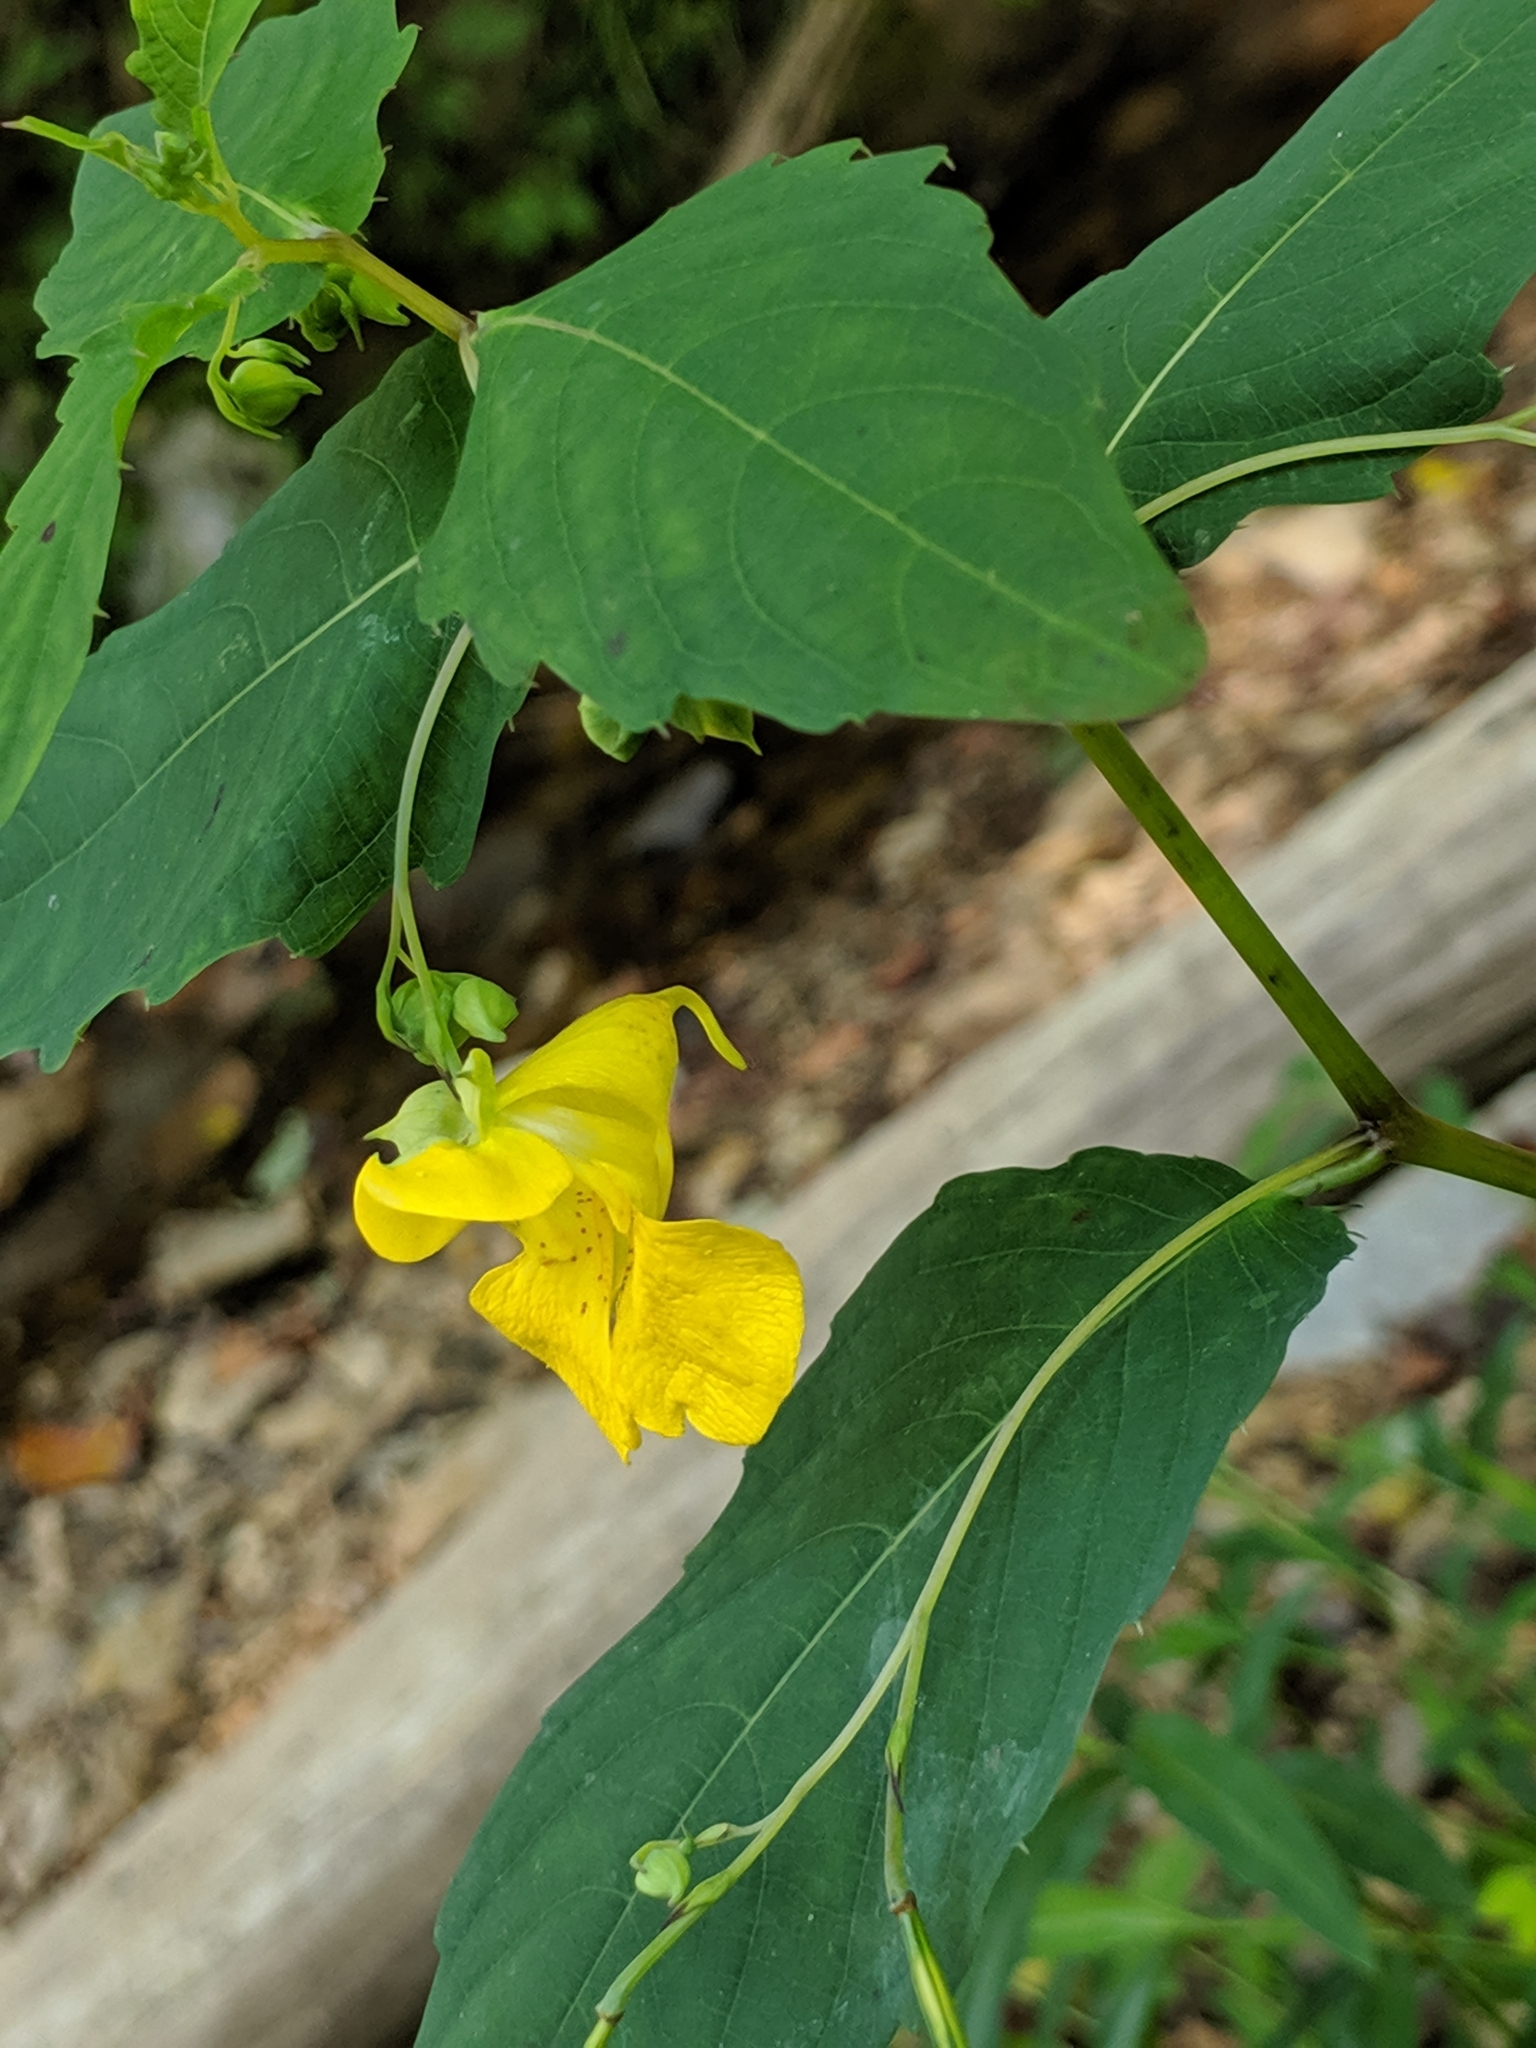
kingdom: Plantae
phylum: Tracheophyta
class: Magnoliopsida
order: Ericales
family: Balsaminaceae
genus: Impatiens
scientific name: Impatiens pallida
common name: Pale snapweed
